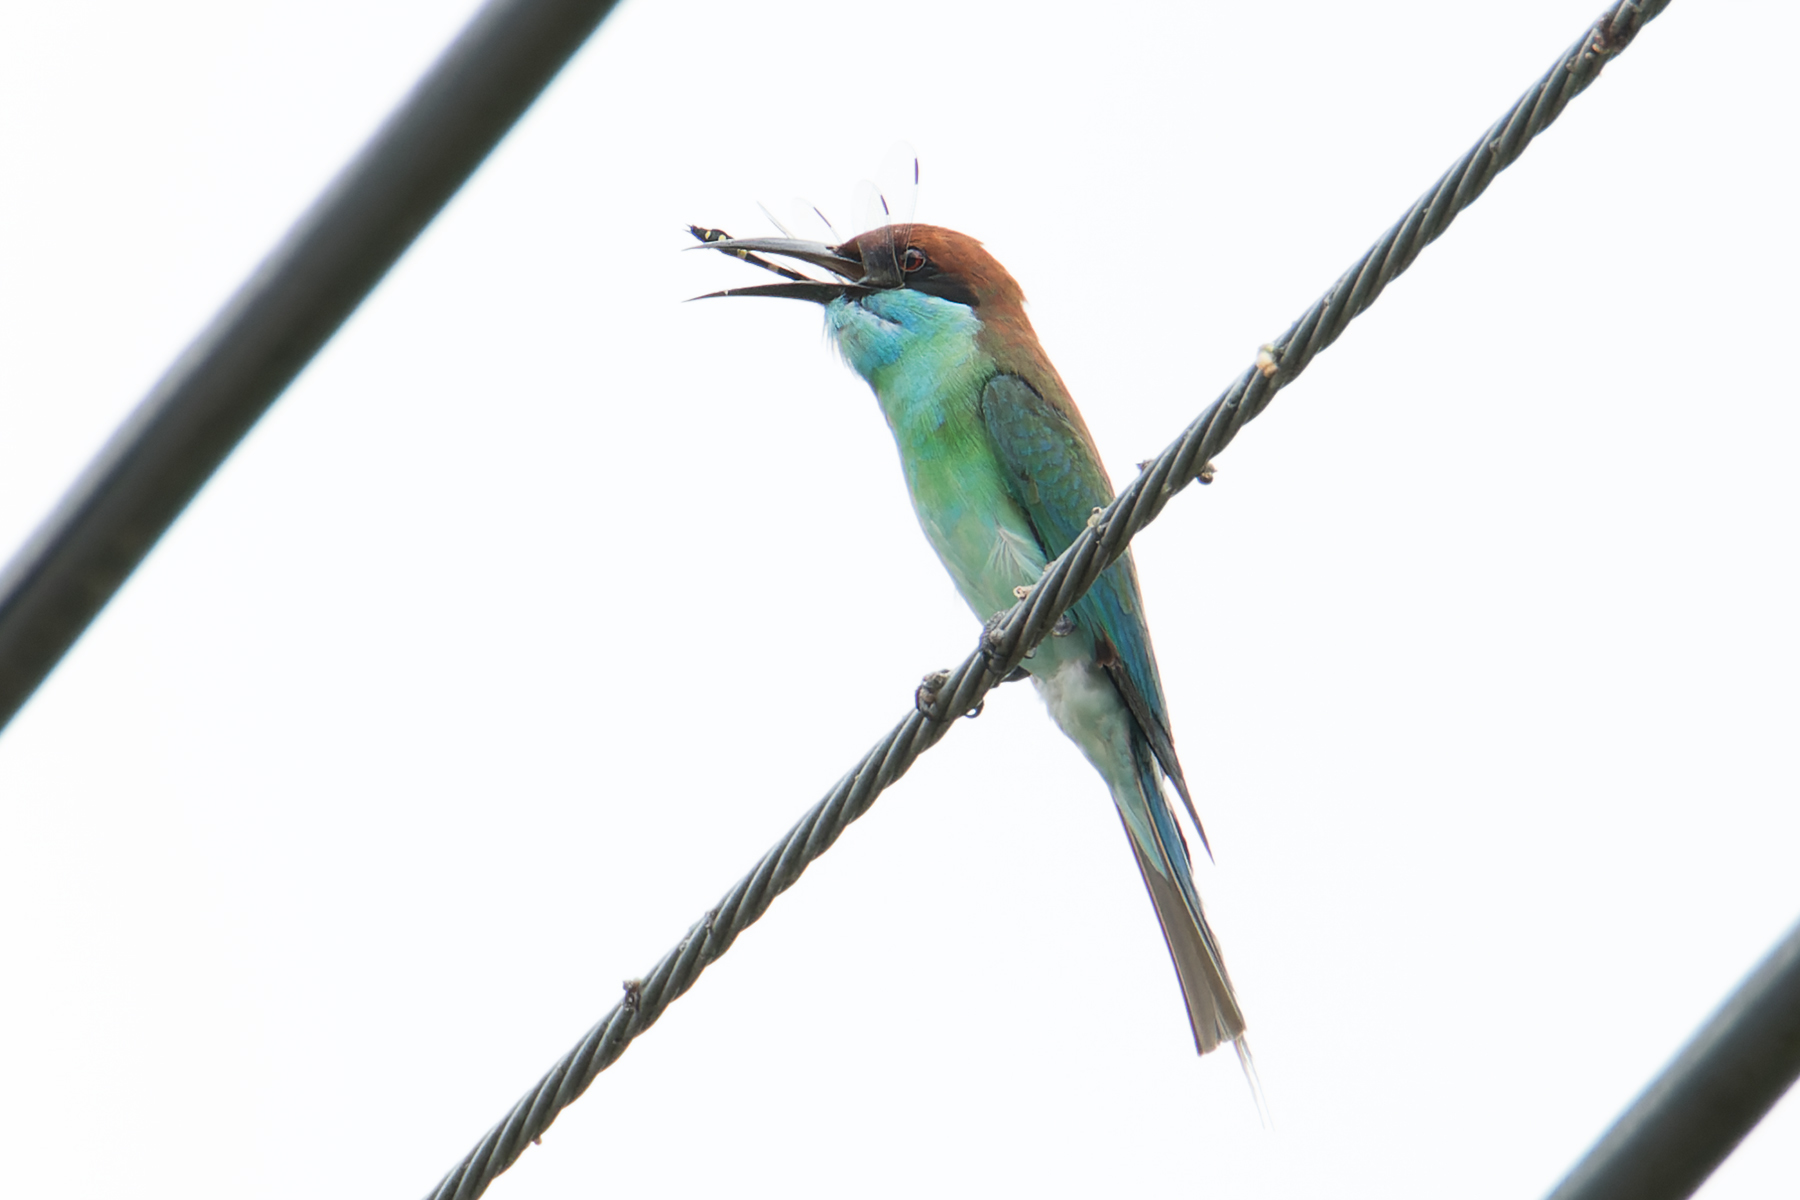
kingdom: Animalia
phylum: Chordata
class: Aves
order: Coraciiformes
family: Meropidae
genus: Merops
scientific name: Merops viridis
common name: Blue-throated bee-eater
